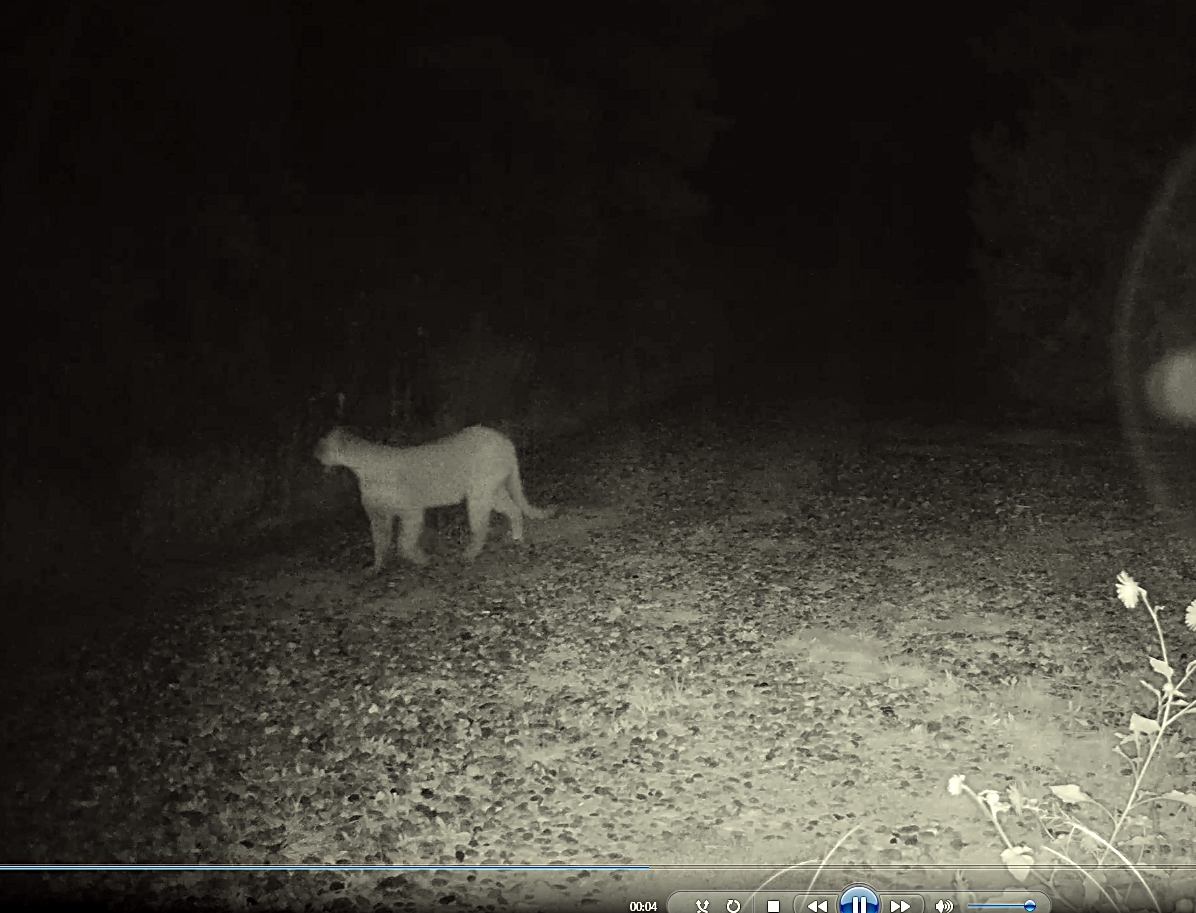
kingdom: Animalia
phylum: Chordata
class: Mammalia
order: Carnivora
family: Felidae
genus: Puma
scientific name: Puma concolor
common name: Puma
